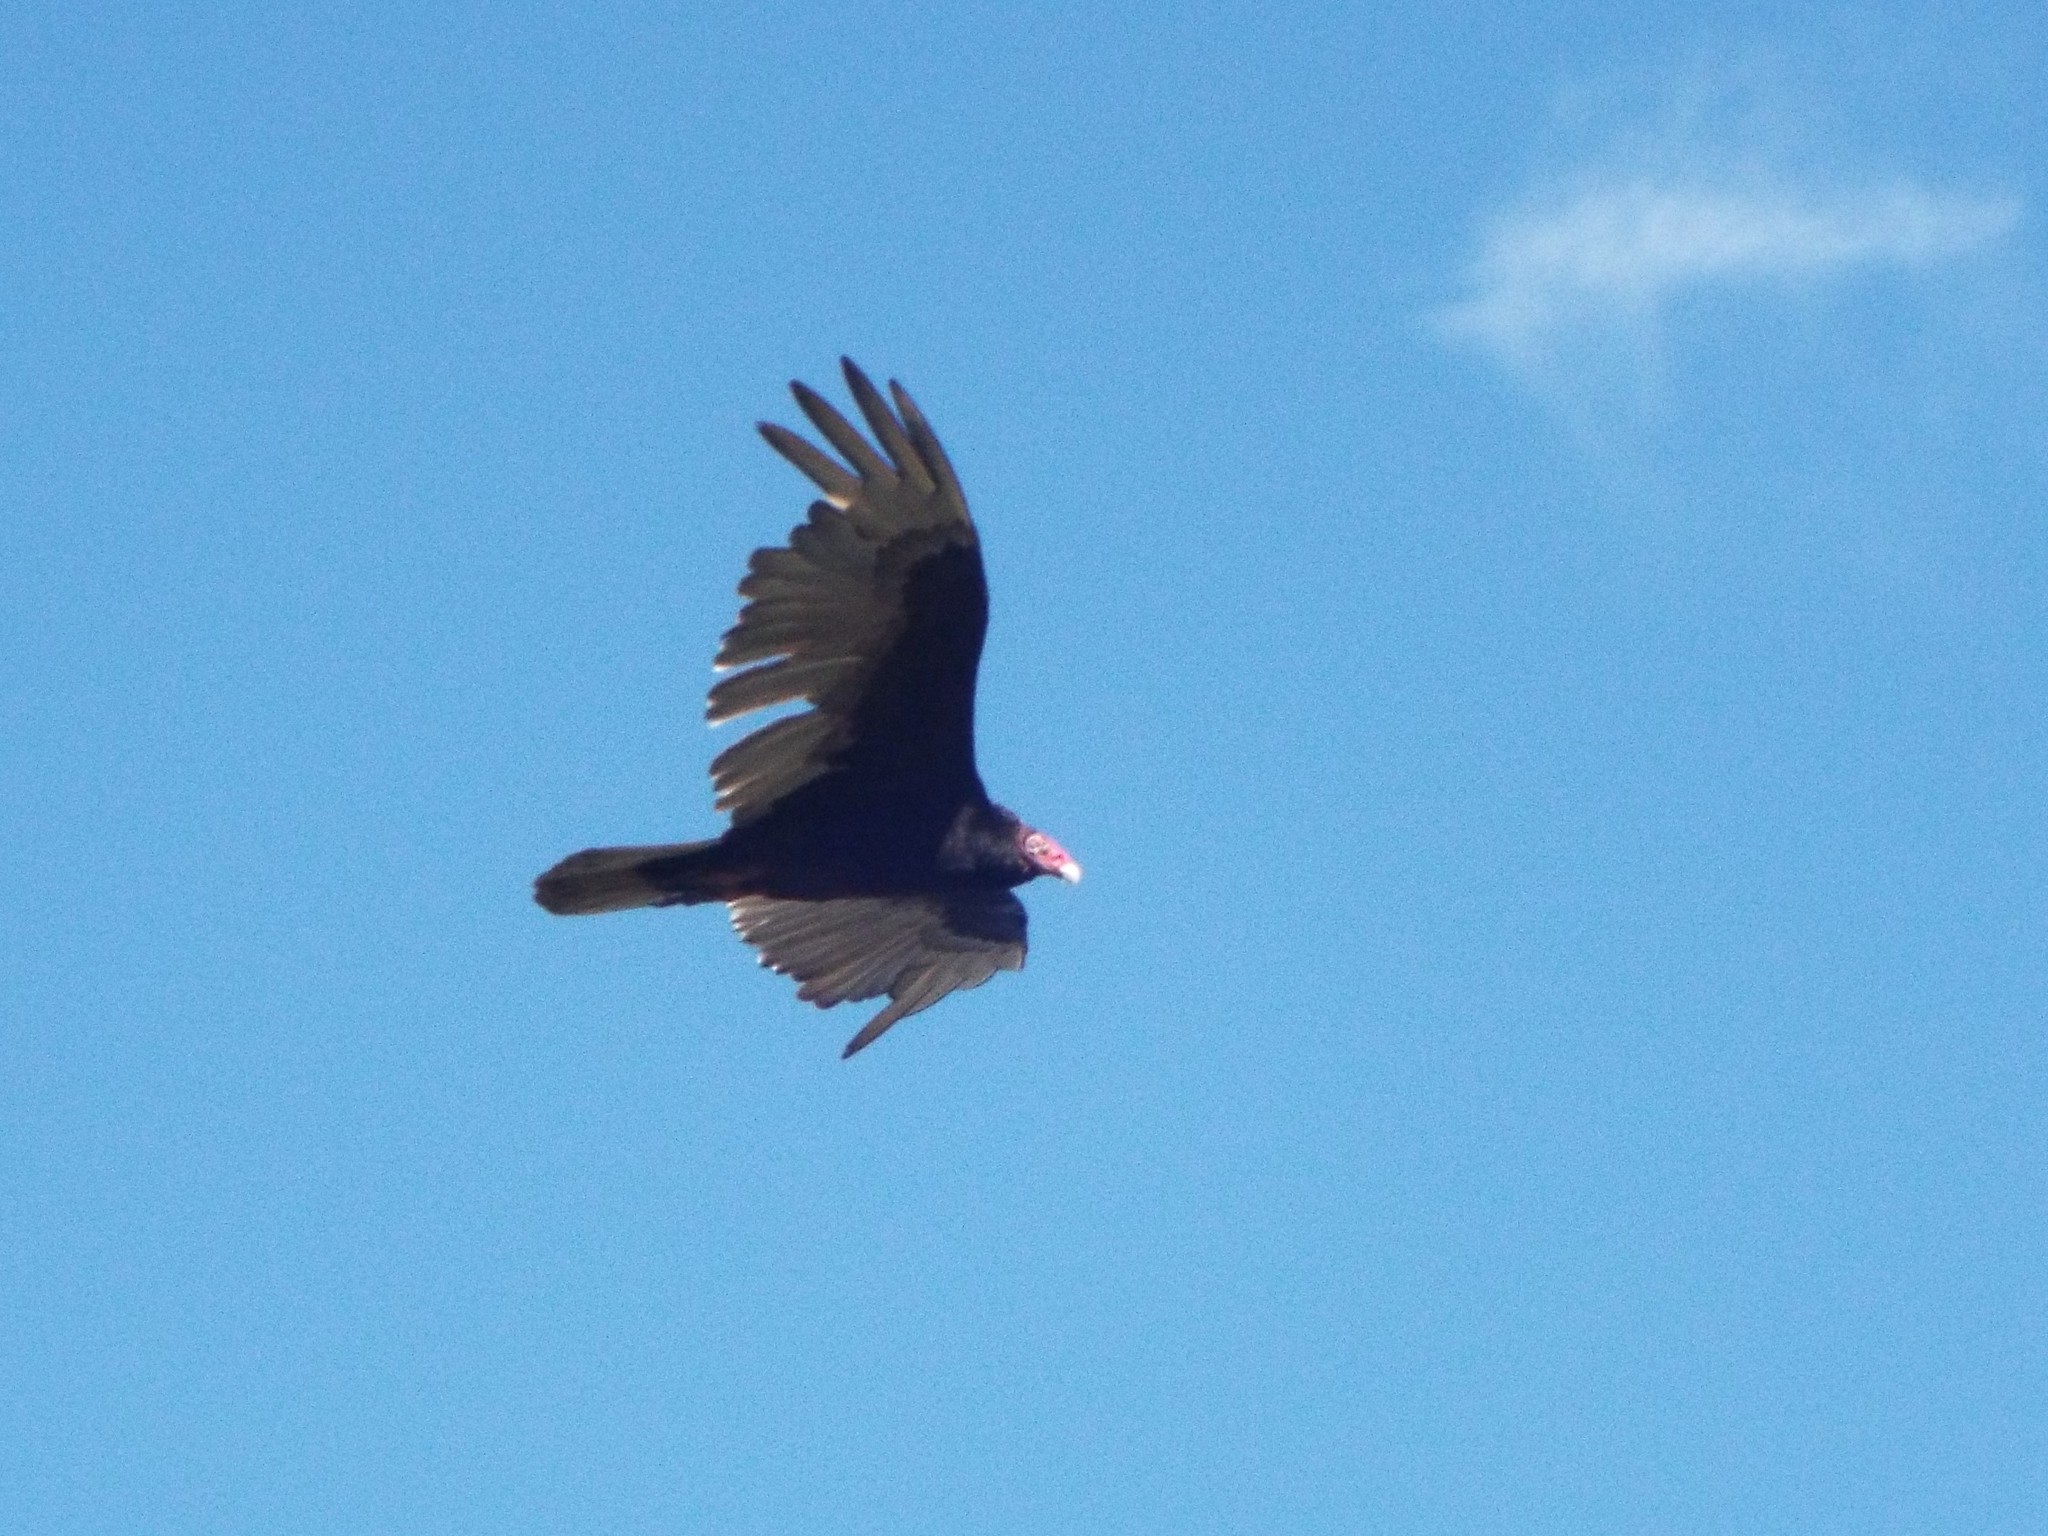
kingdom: Animalia
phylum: Chordata
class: Aves
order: Accipitriformes
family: Cathartidae
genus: Cathartes
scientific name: Cathartes aura
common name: Turkey vulture
